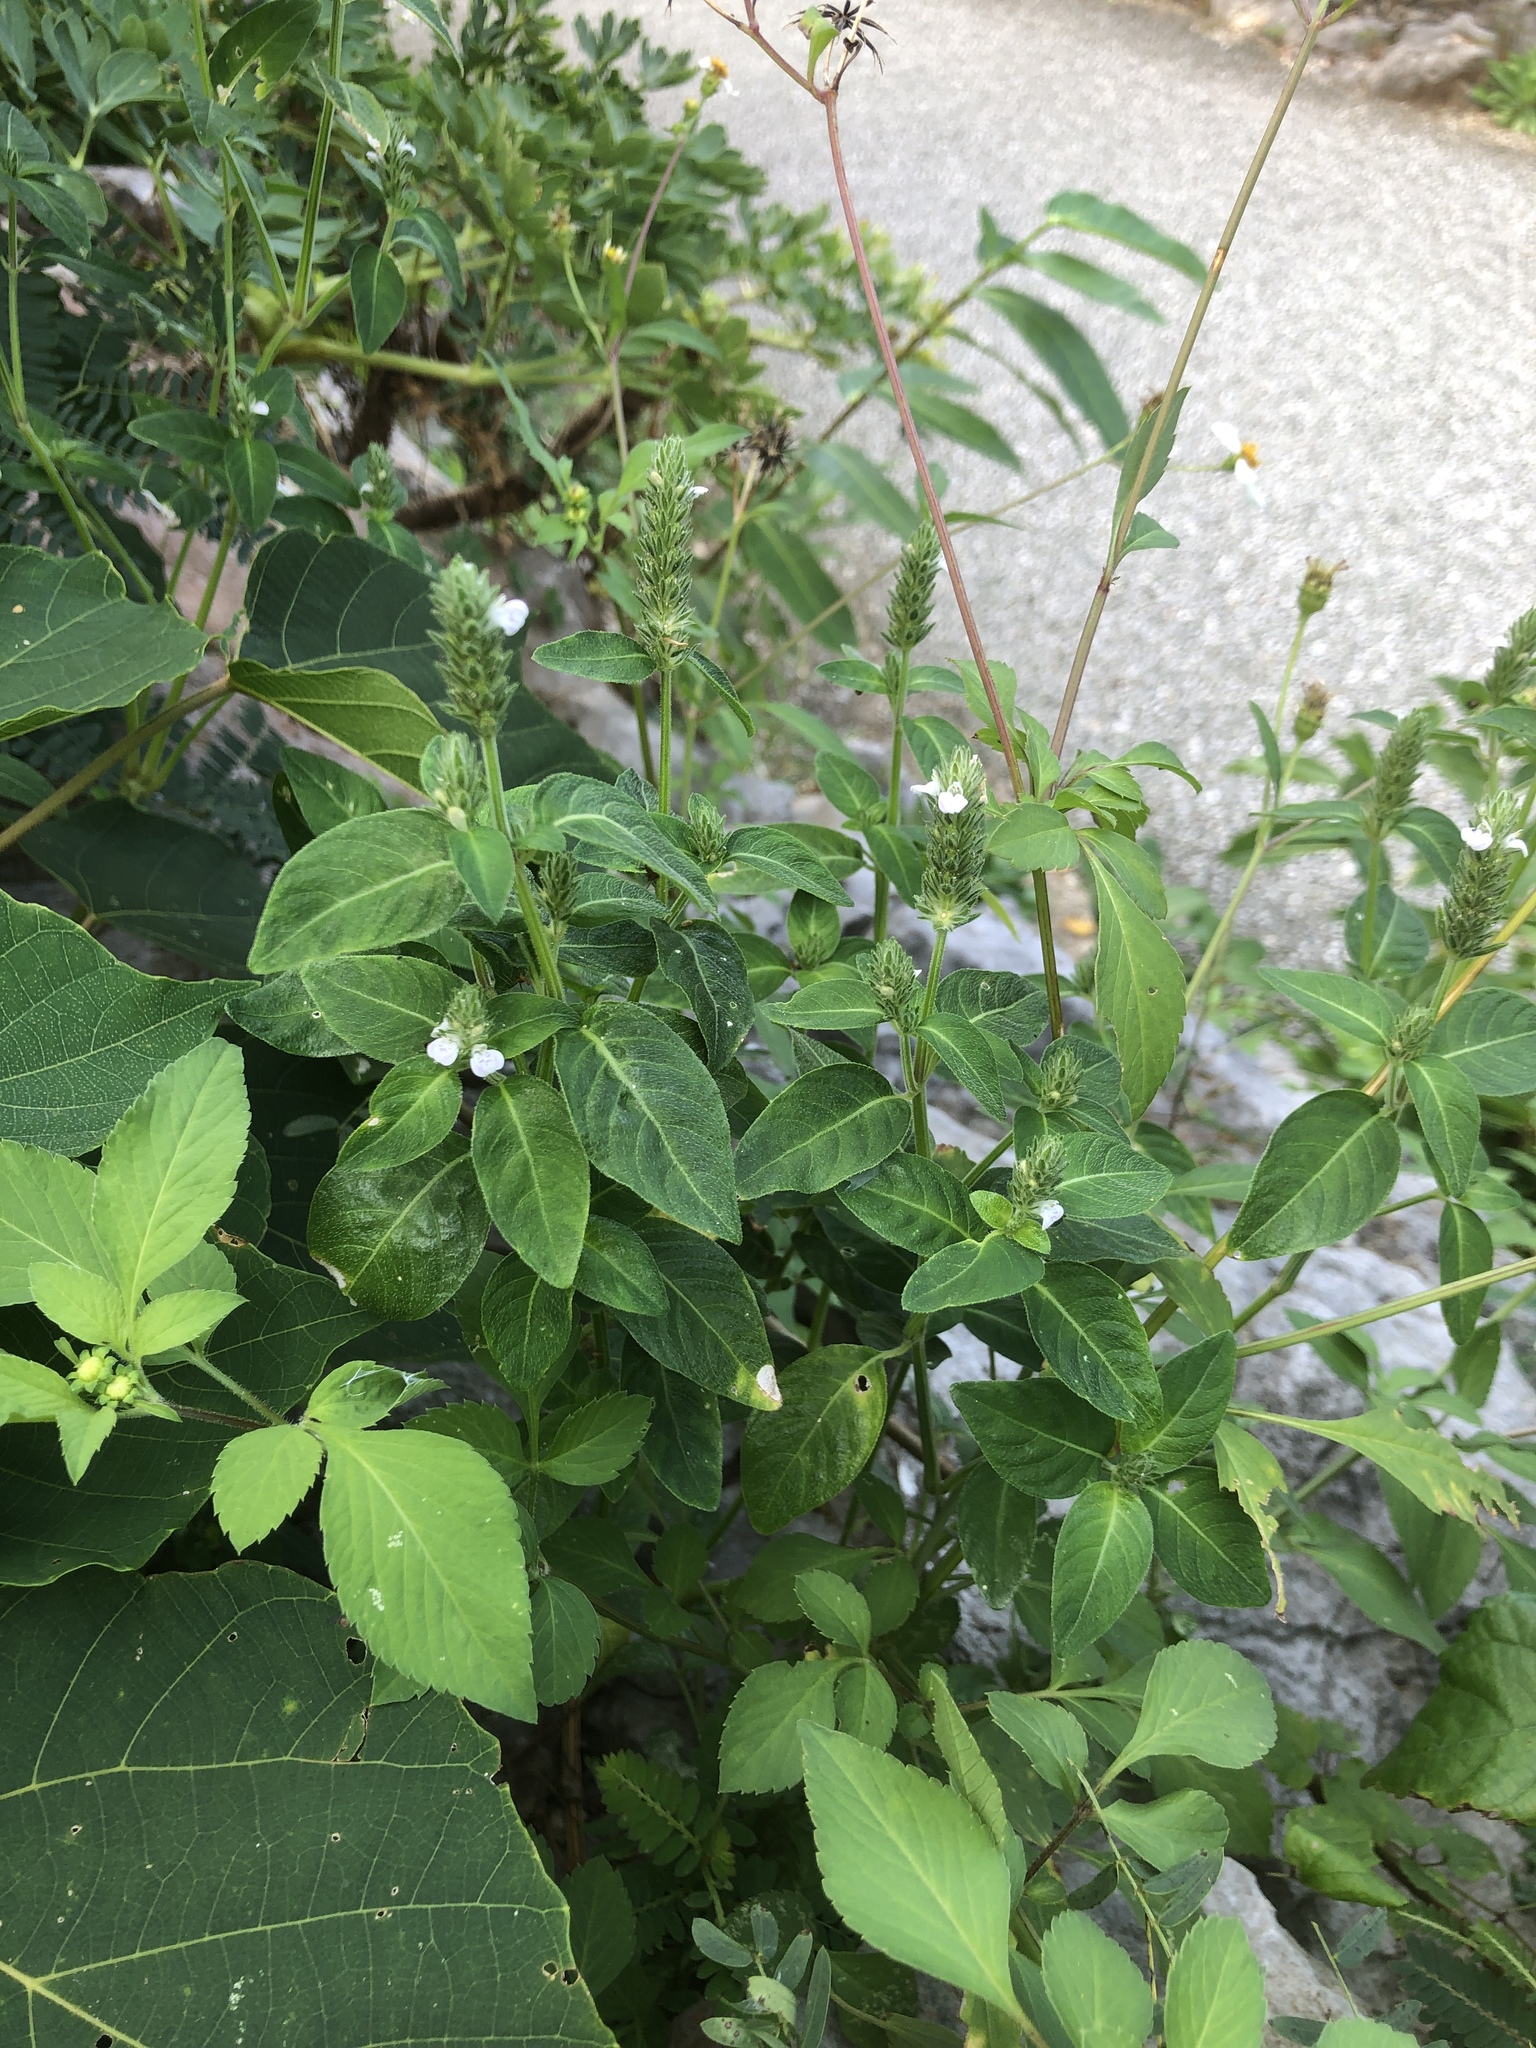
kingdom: Plantae
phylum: Tracheophyta
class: Magnoliopsida
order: Lamiales
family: Acanthaceae
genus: Rostellularia
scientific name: Rostellularia procumbens
